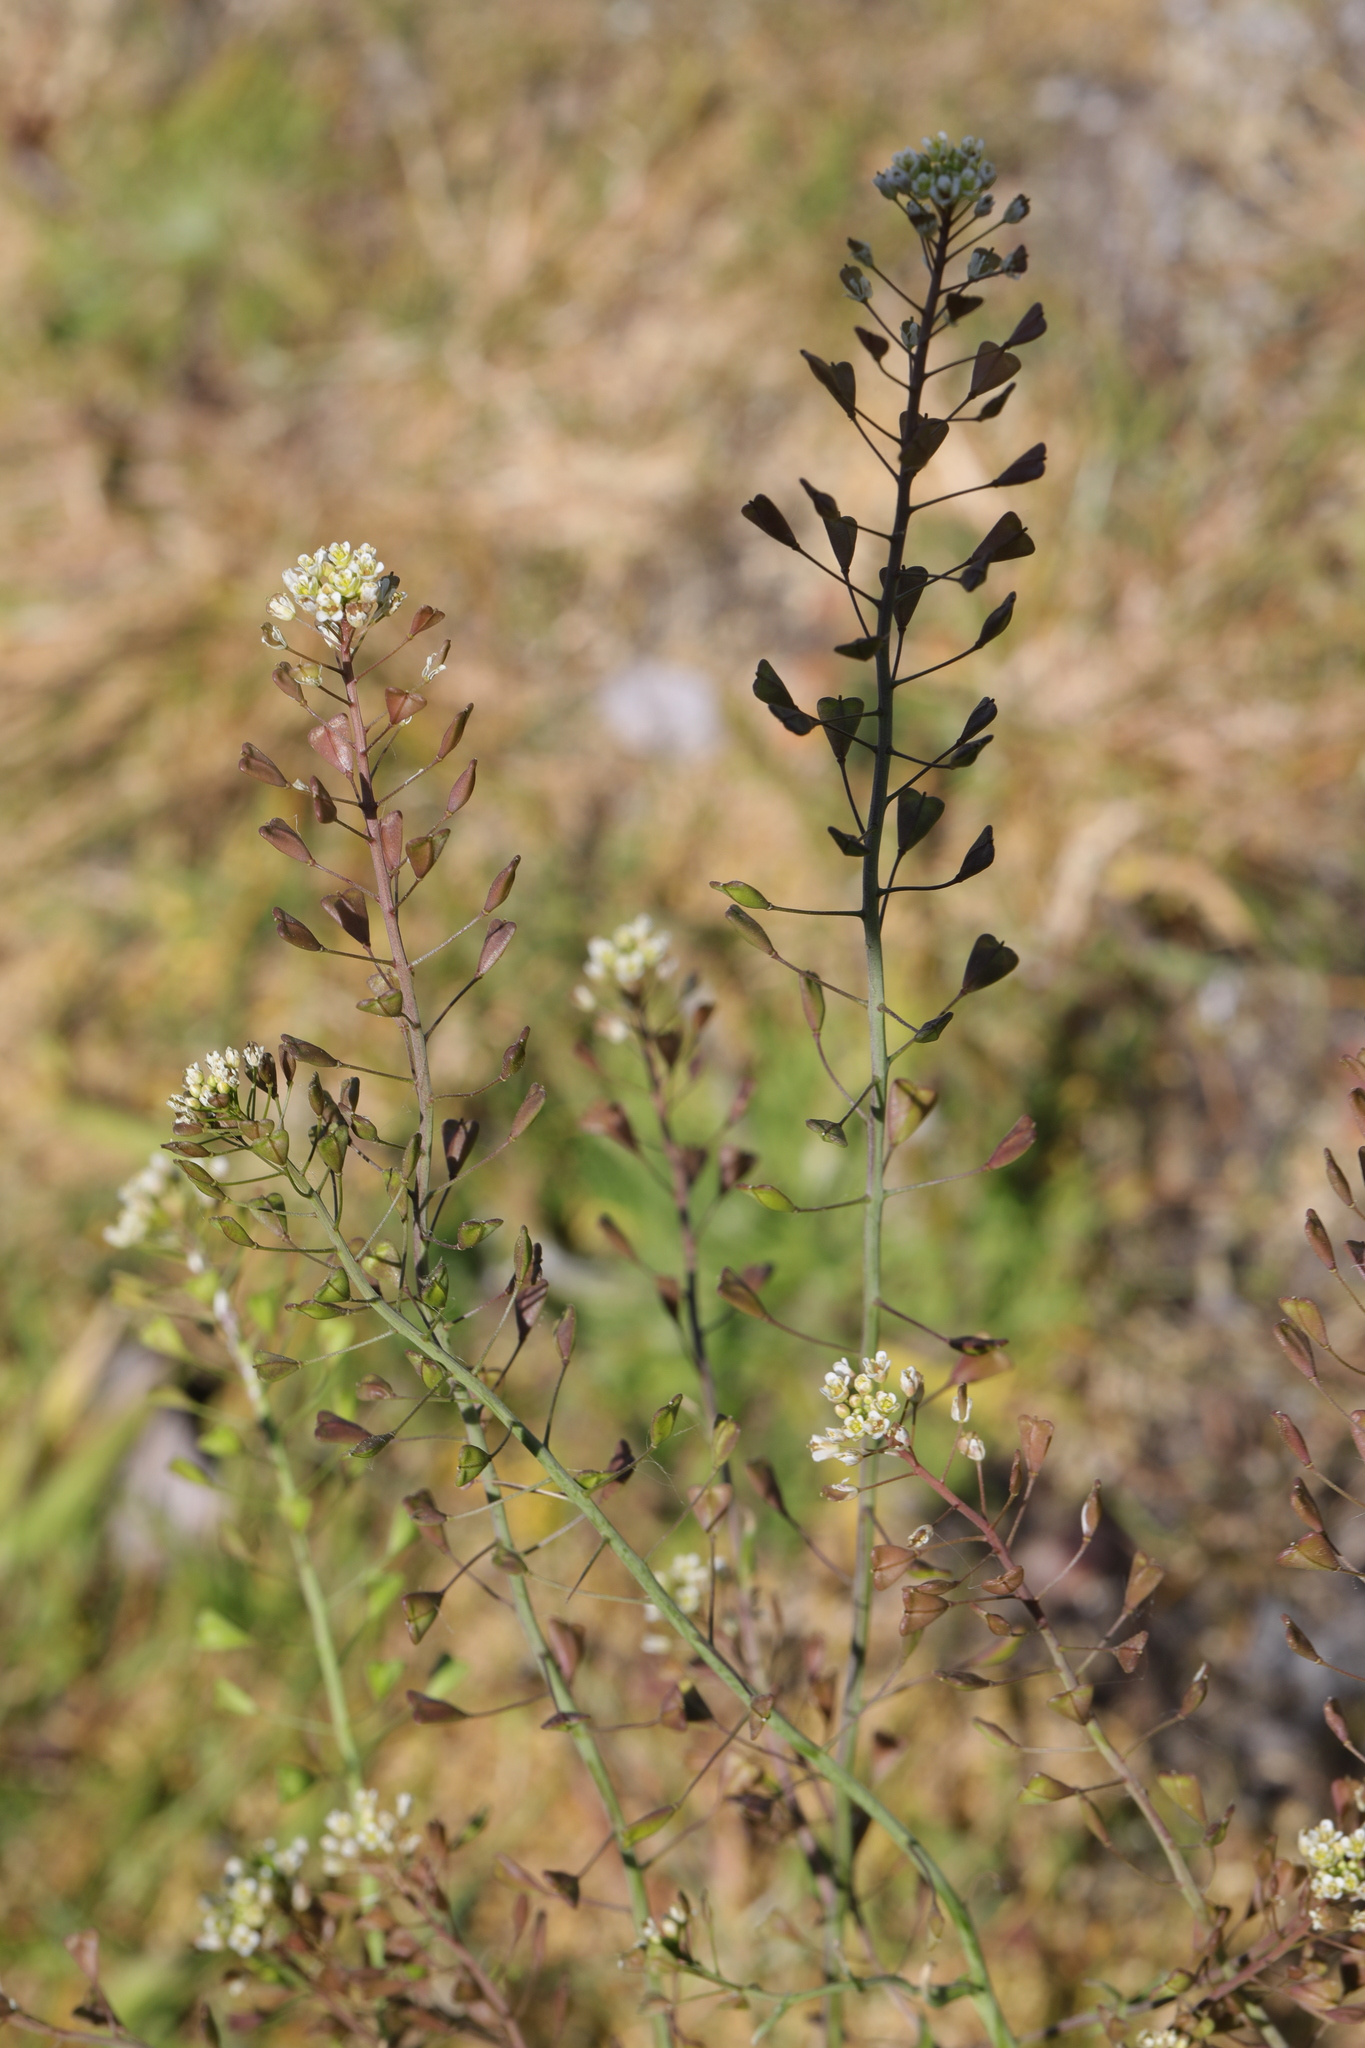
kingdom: Plantae
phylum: Tracheophyta
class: Magnoliopsida
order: Brassicales
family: Brassicaceae
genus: Capsella
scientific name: Capsella bursa-pastoris
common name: Shepherd's purse
